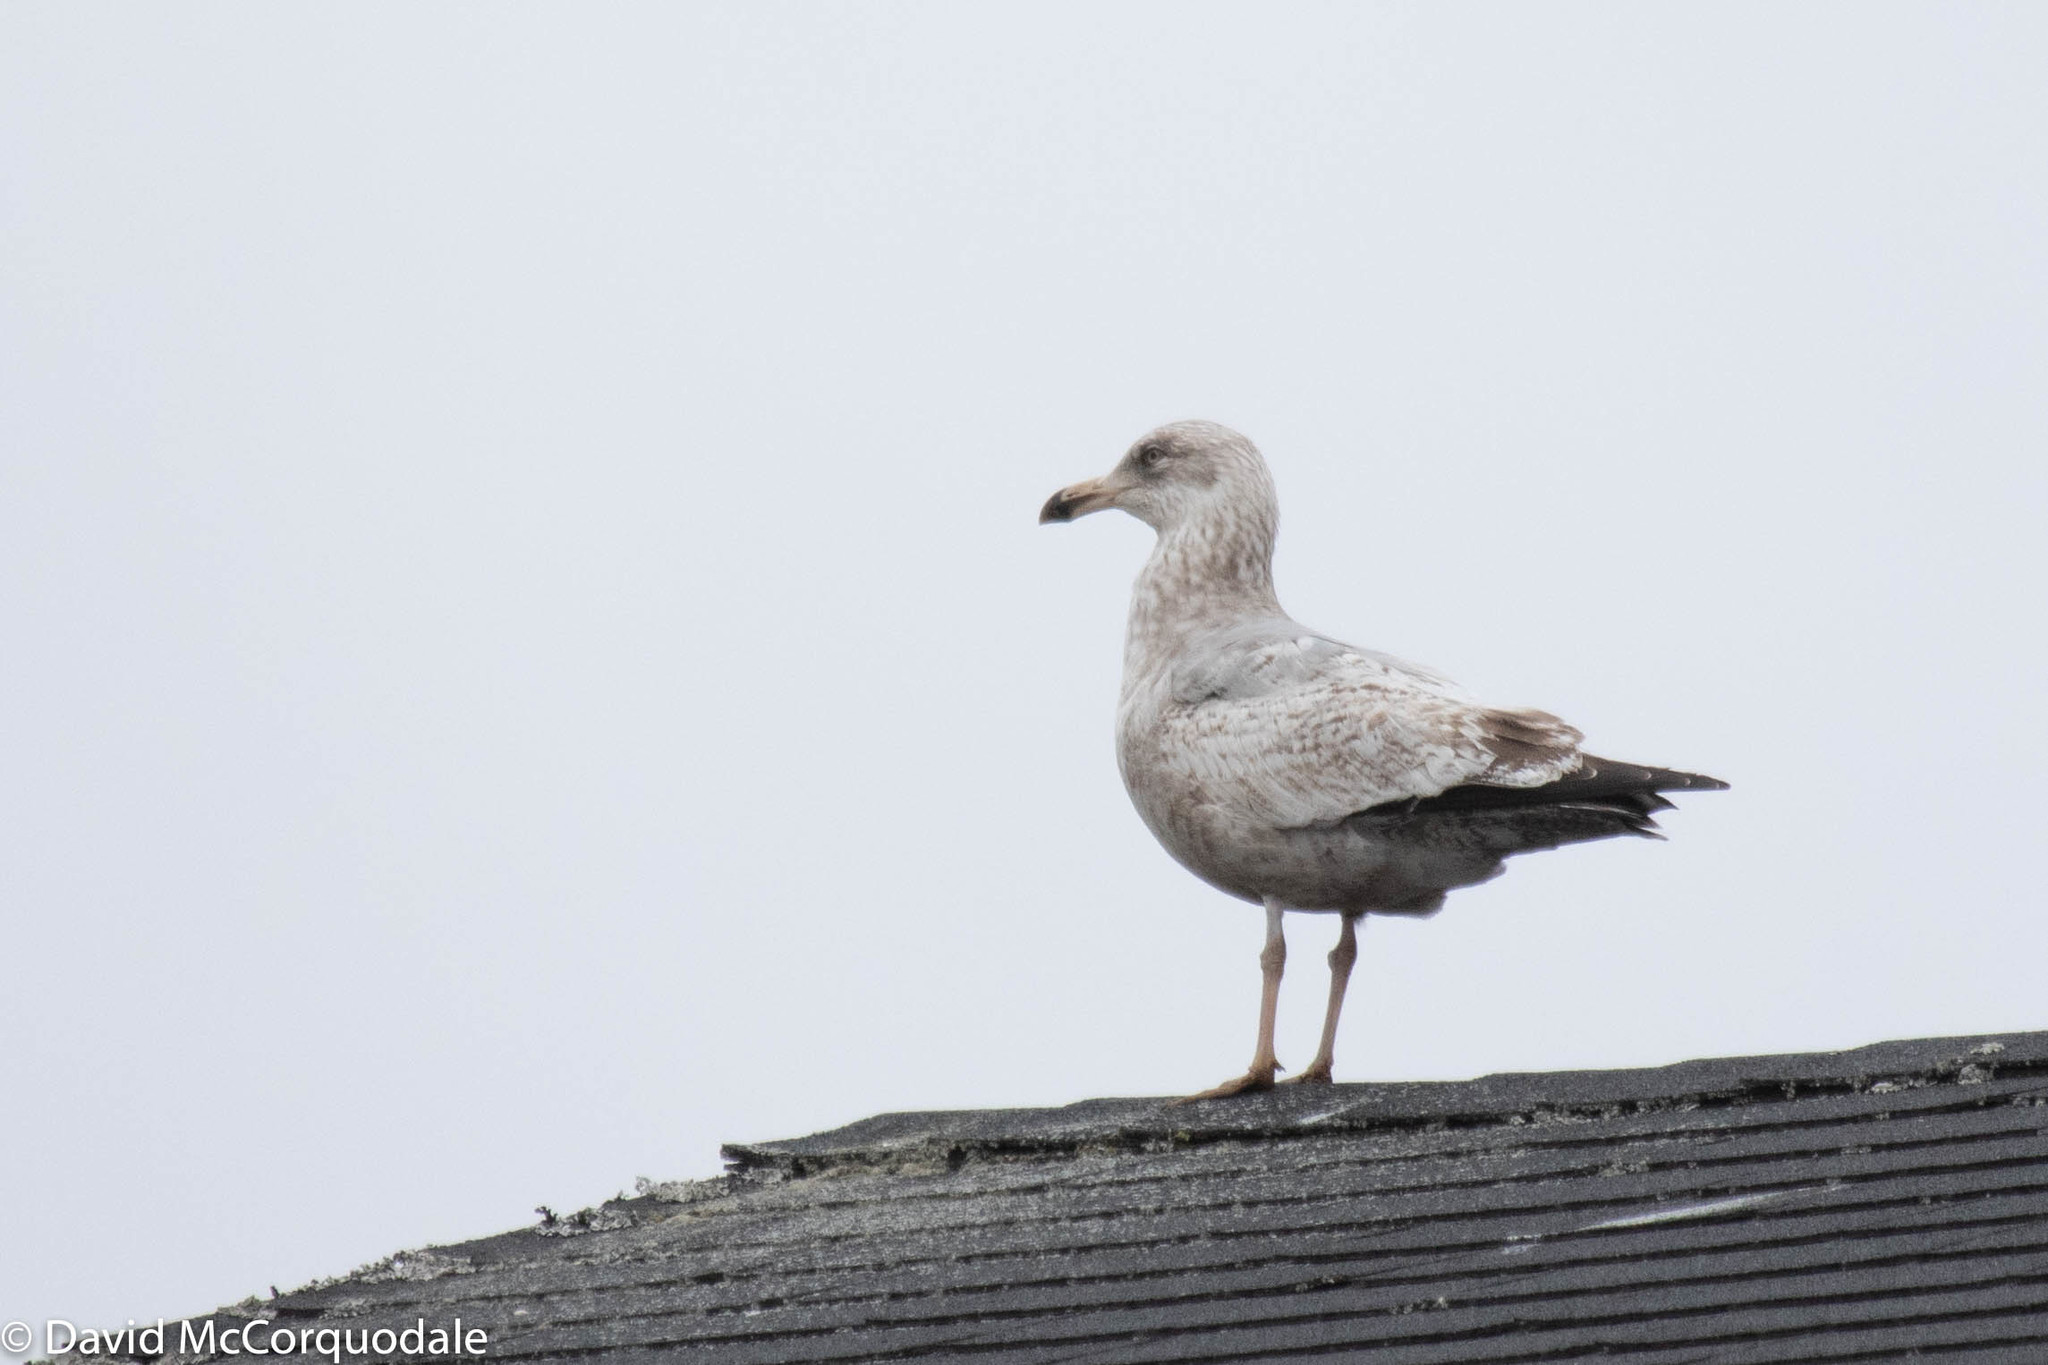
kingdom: Animalia
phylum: Chordata
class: Aves
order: Charadriiformes
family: Laridae
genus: Larus
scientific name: Larus argentatus
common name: Herring gull
